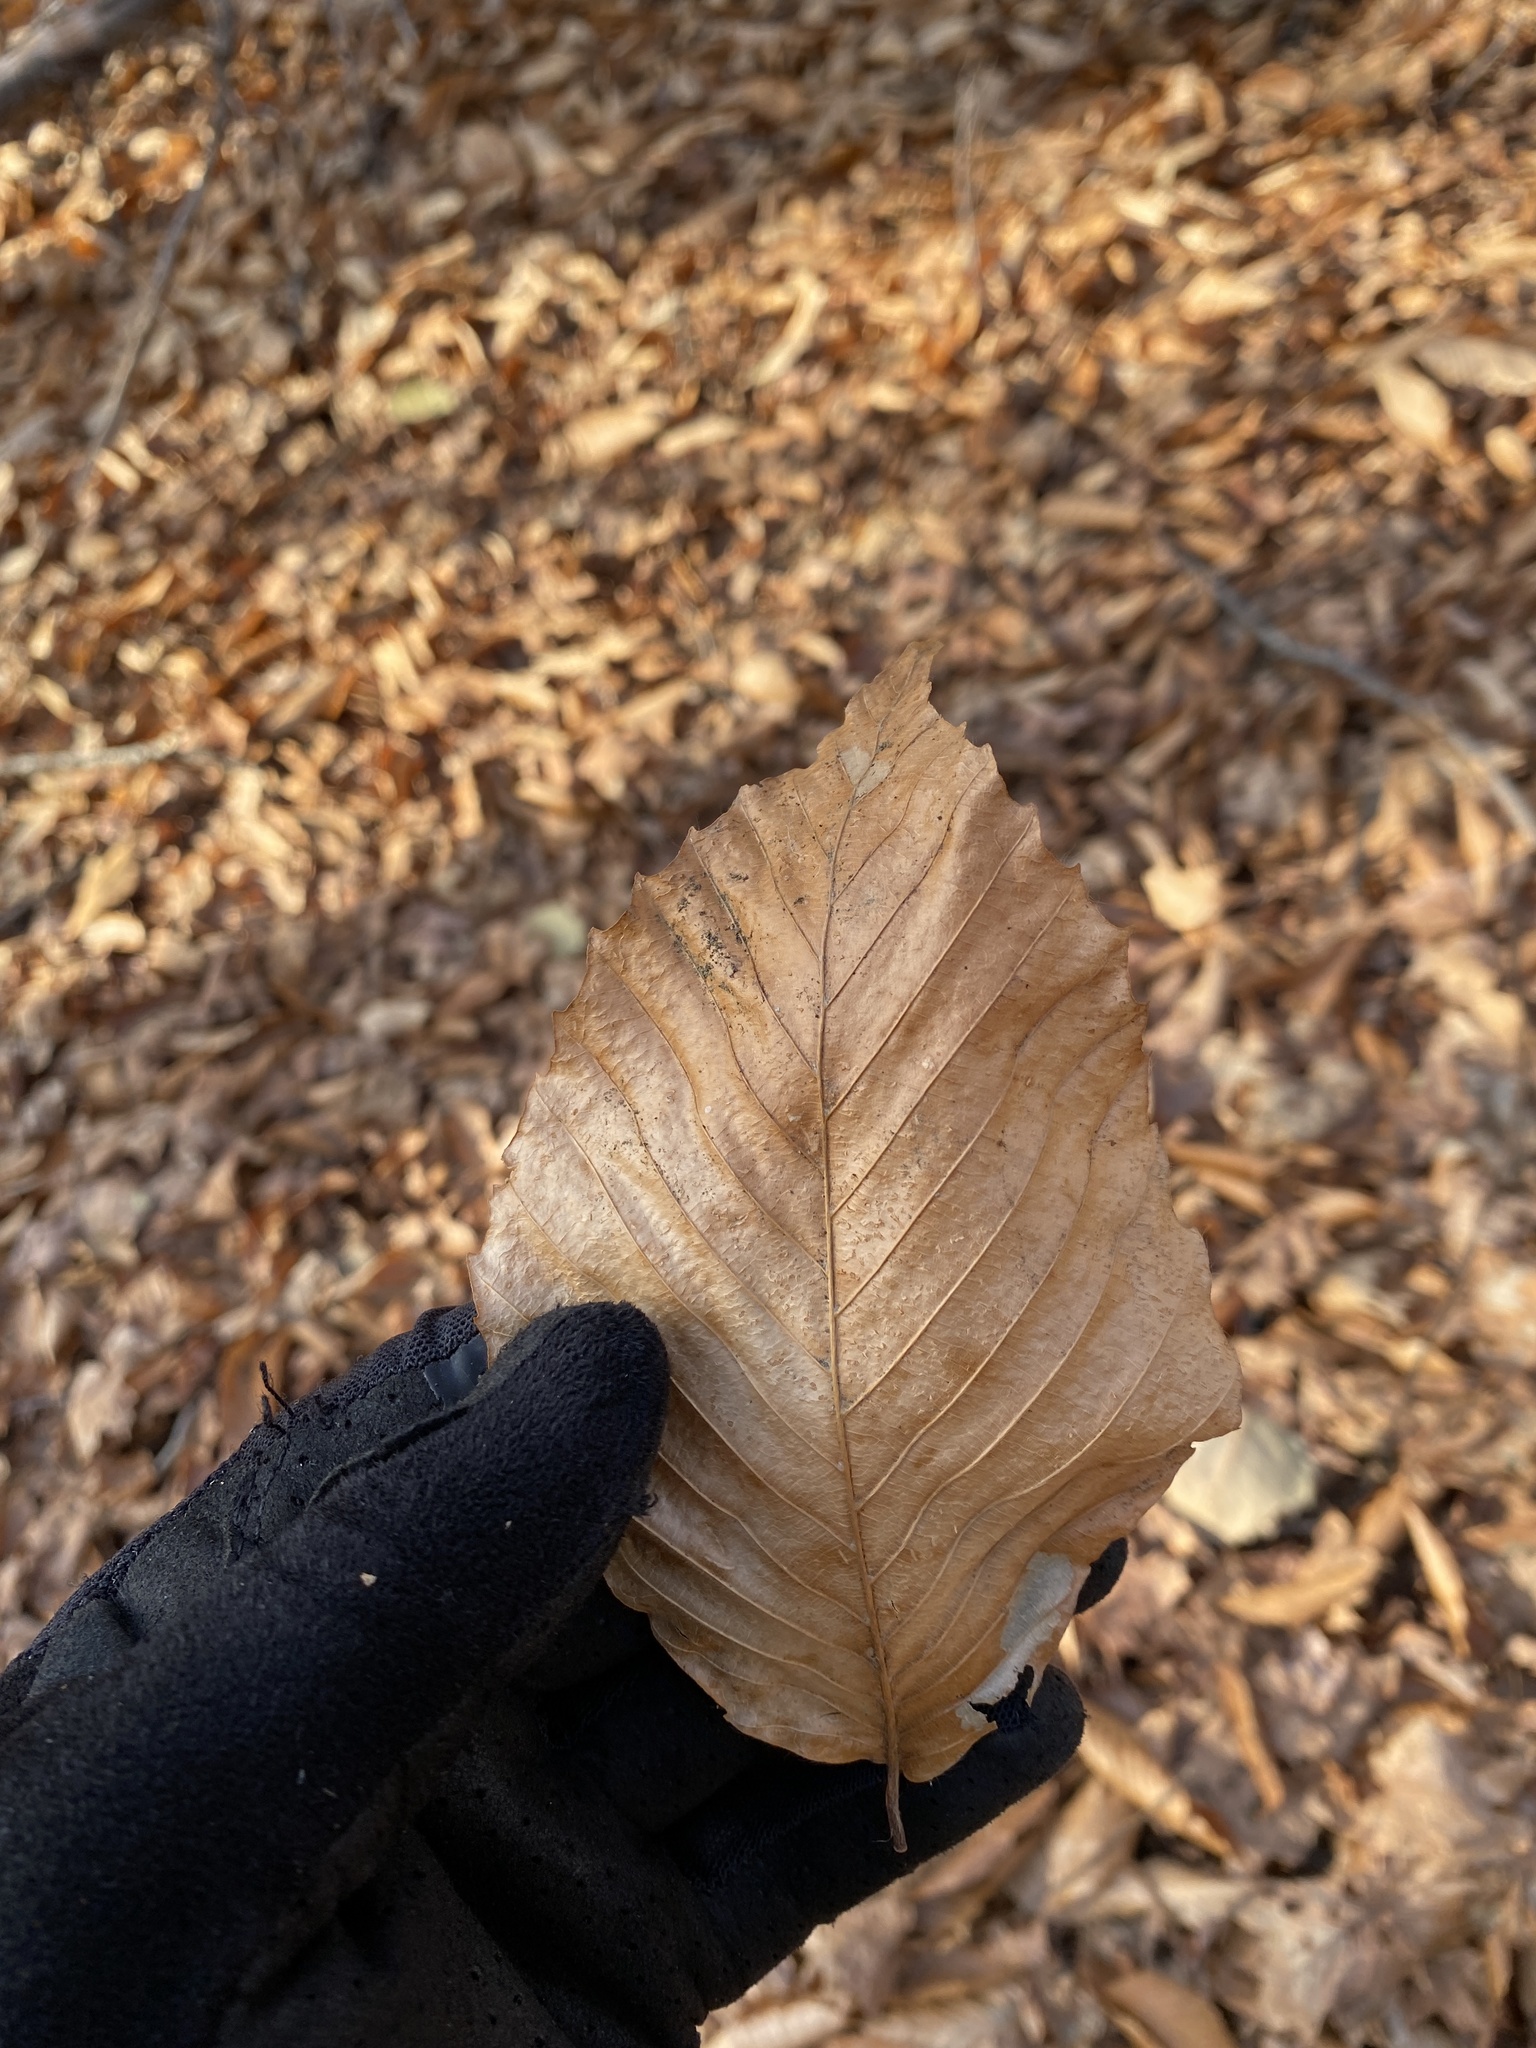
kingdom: Plantae
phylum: Tracheophyta
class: Magnoliopsida
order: Fagales
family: Fagaceae
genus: Fagus
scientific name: Fagus grandifolia
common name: American beech
